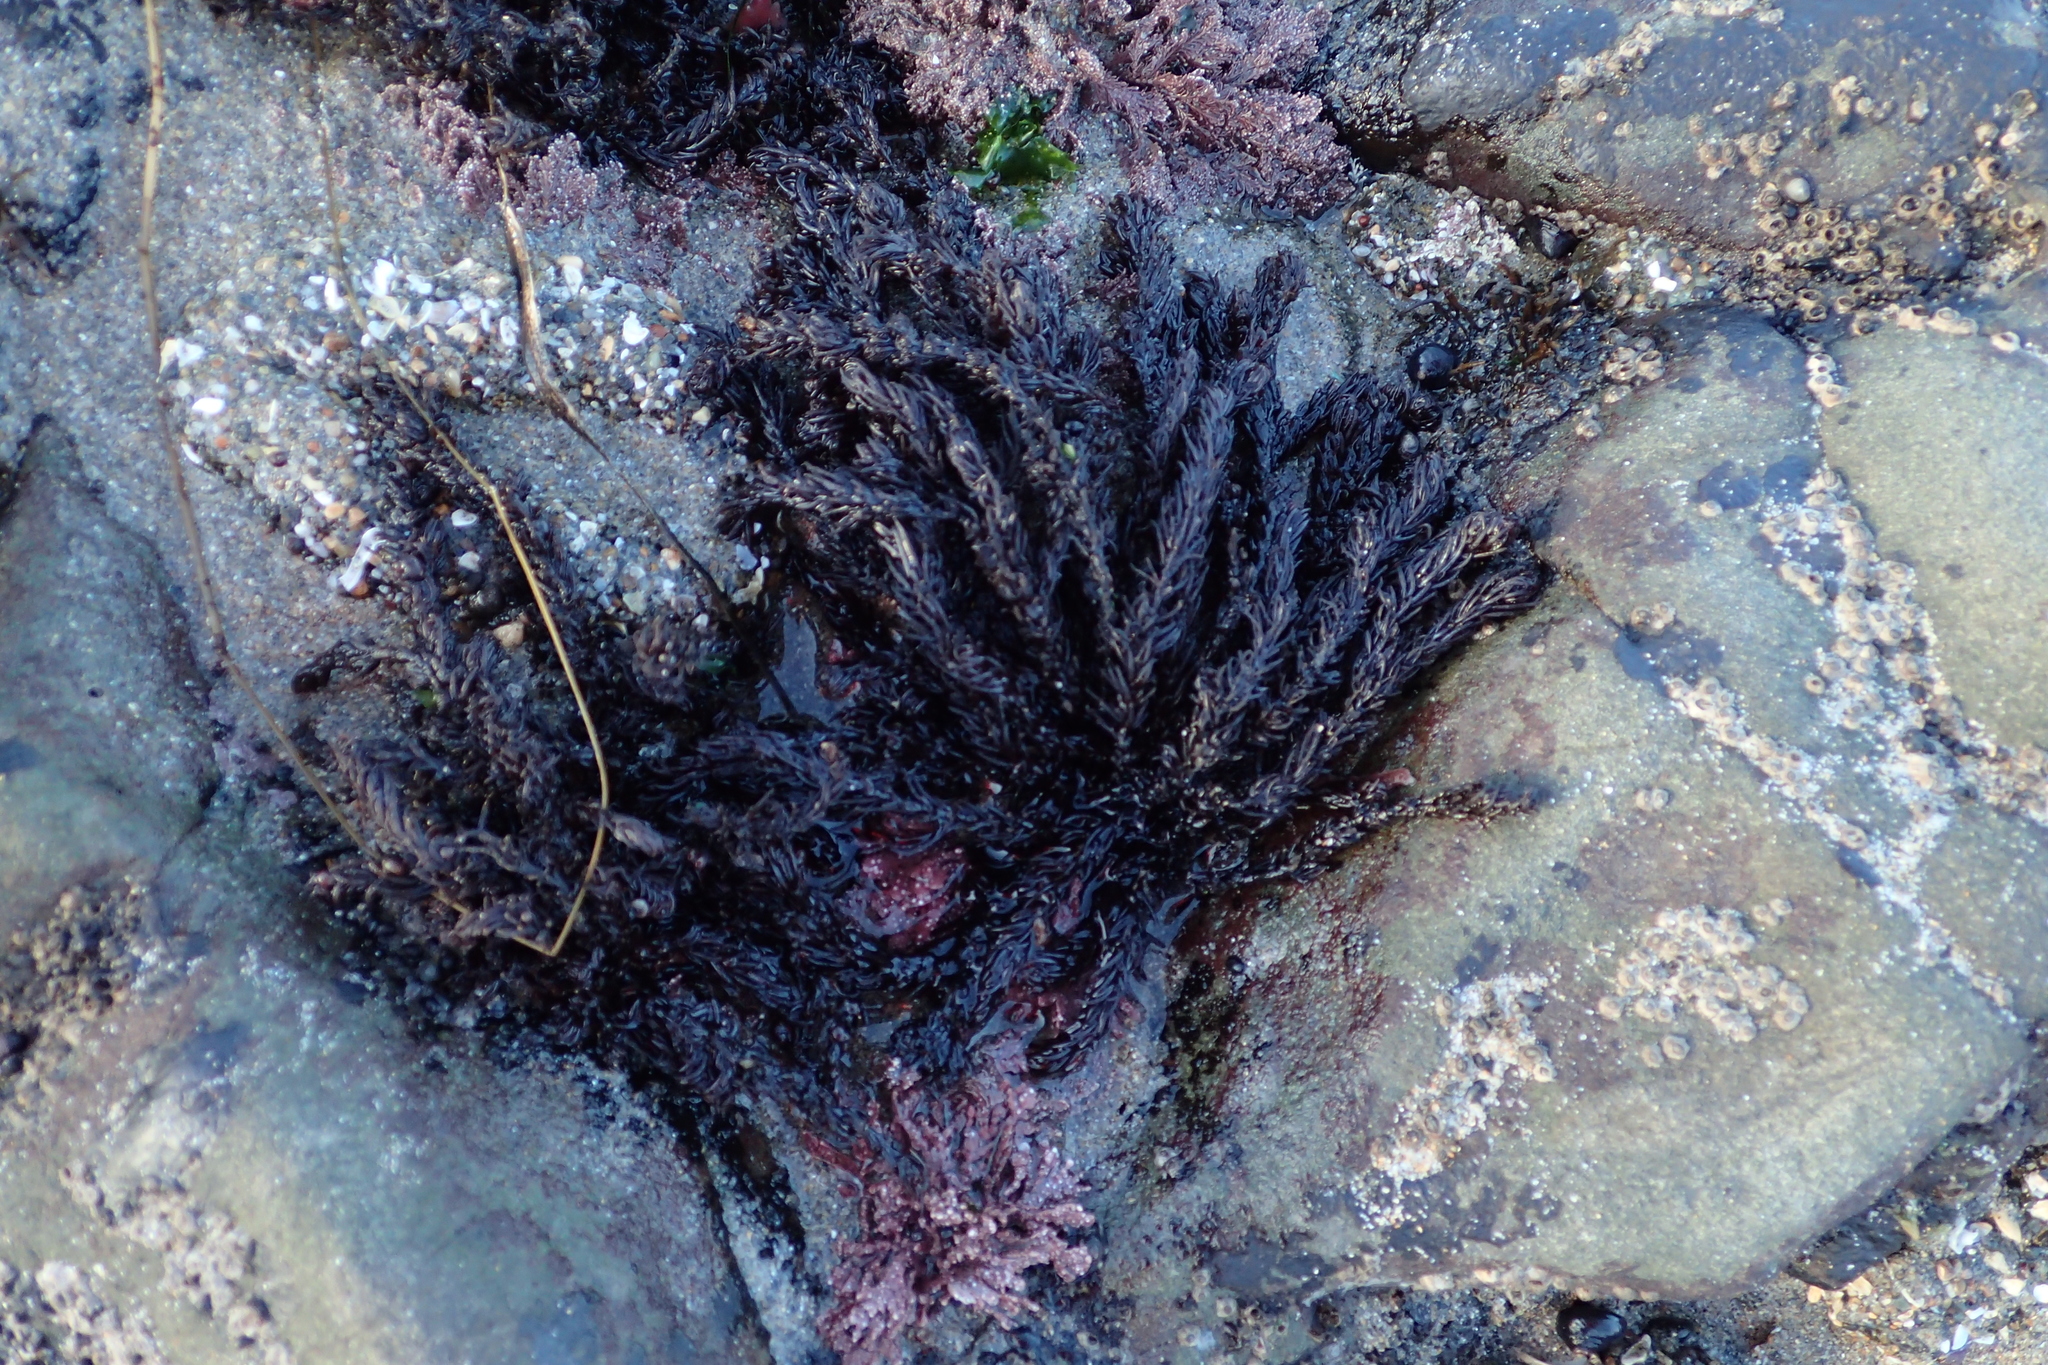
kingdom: Plantae
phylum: Rhodophyta
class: Florideophyceae
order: Ceramiales
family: Rhodomelaceae
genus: Neorhodomela
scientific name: Neorhodomela larix
